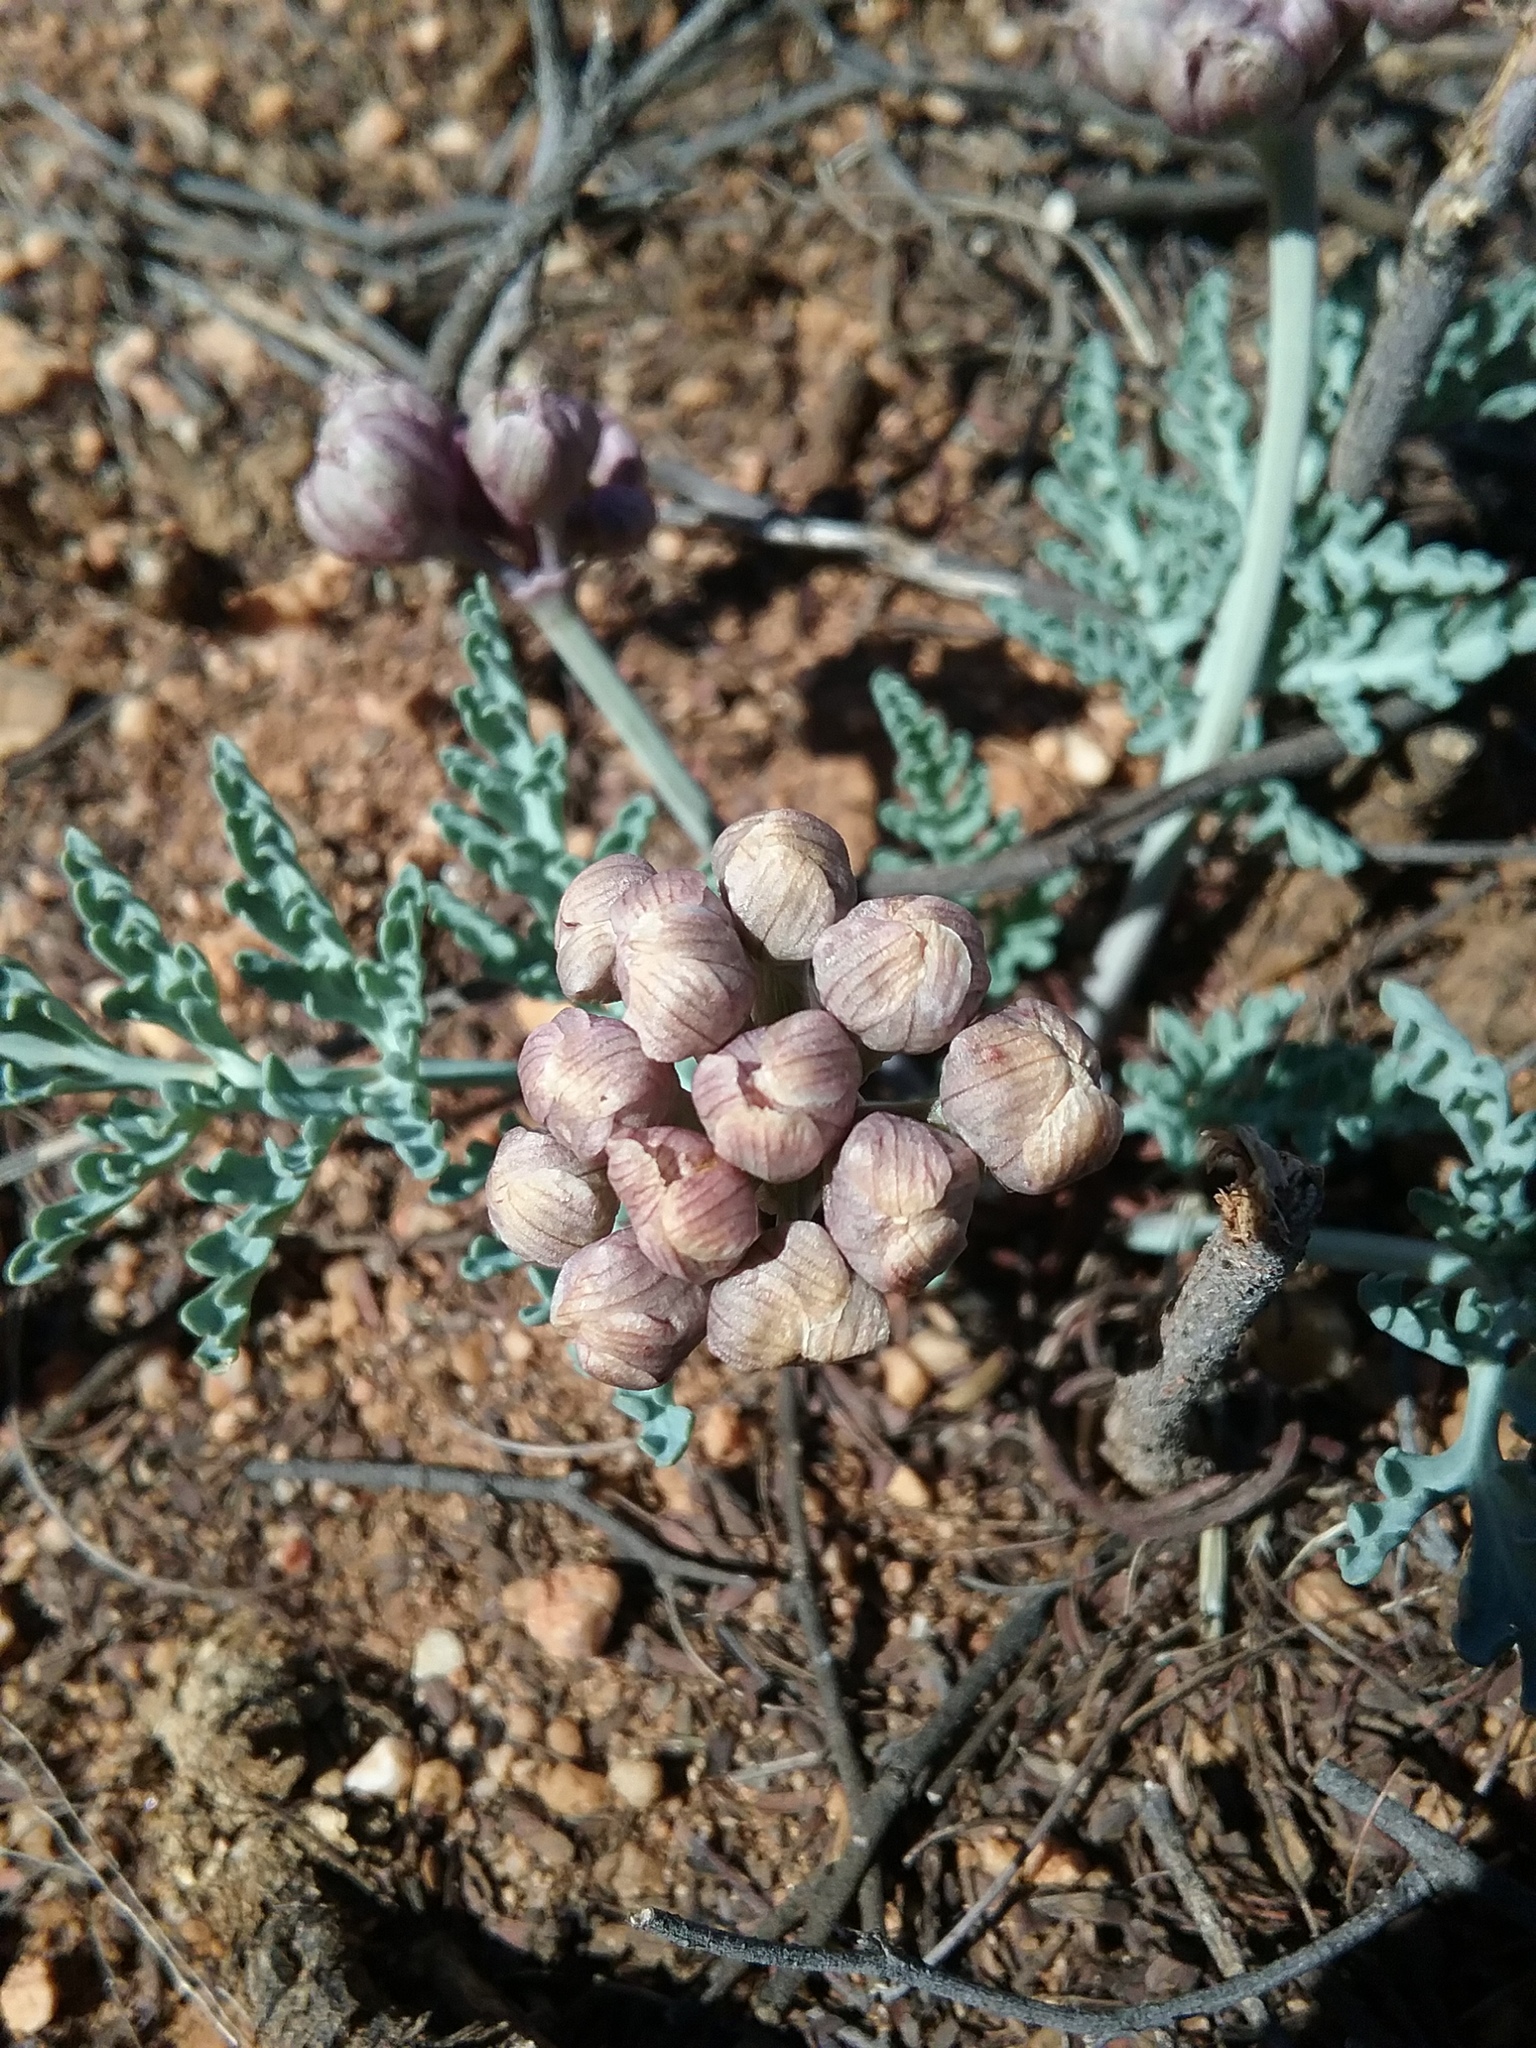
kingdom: Plantae
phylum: Tracheophyta
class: Magnoliopsida
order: Apiales
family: Apiaceae
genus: Vesper
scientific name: Vesper multinervatus
